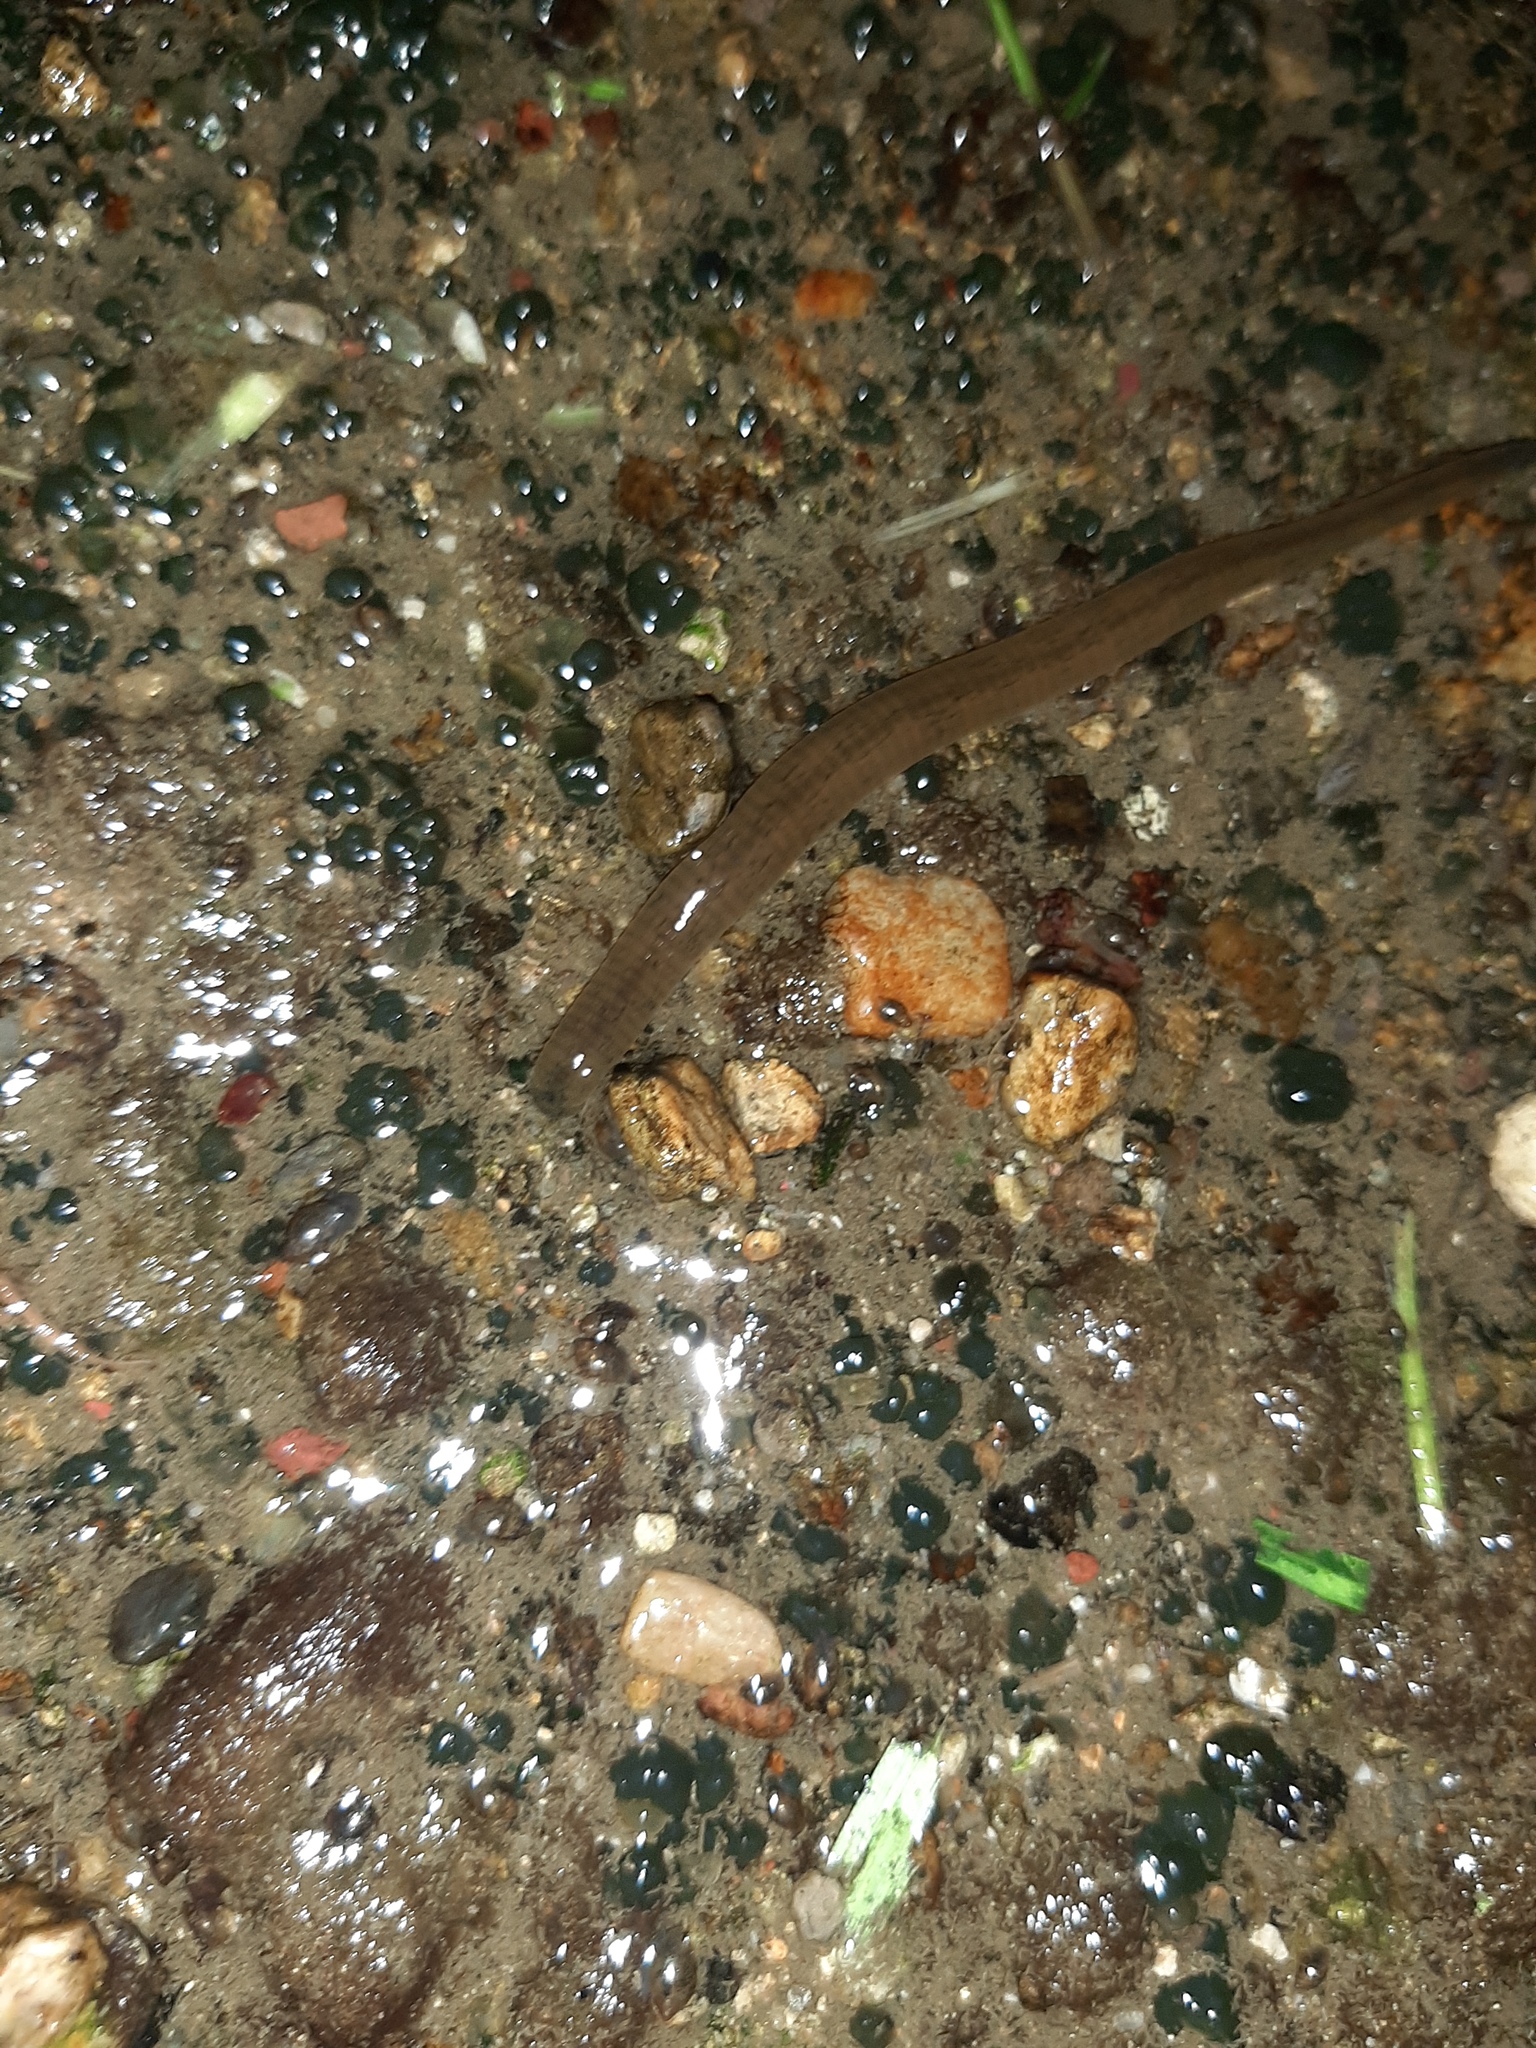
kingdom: Animalia
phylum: Annelida
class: Clitellata
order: Arhynchobdellida
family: Haemopidae
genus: Haemopis
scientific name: Haemopis sanguisuga
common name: Horse leech
